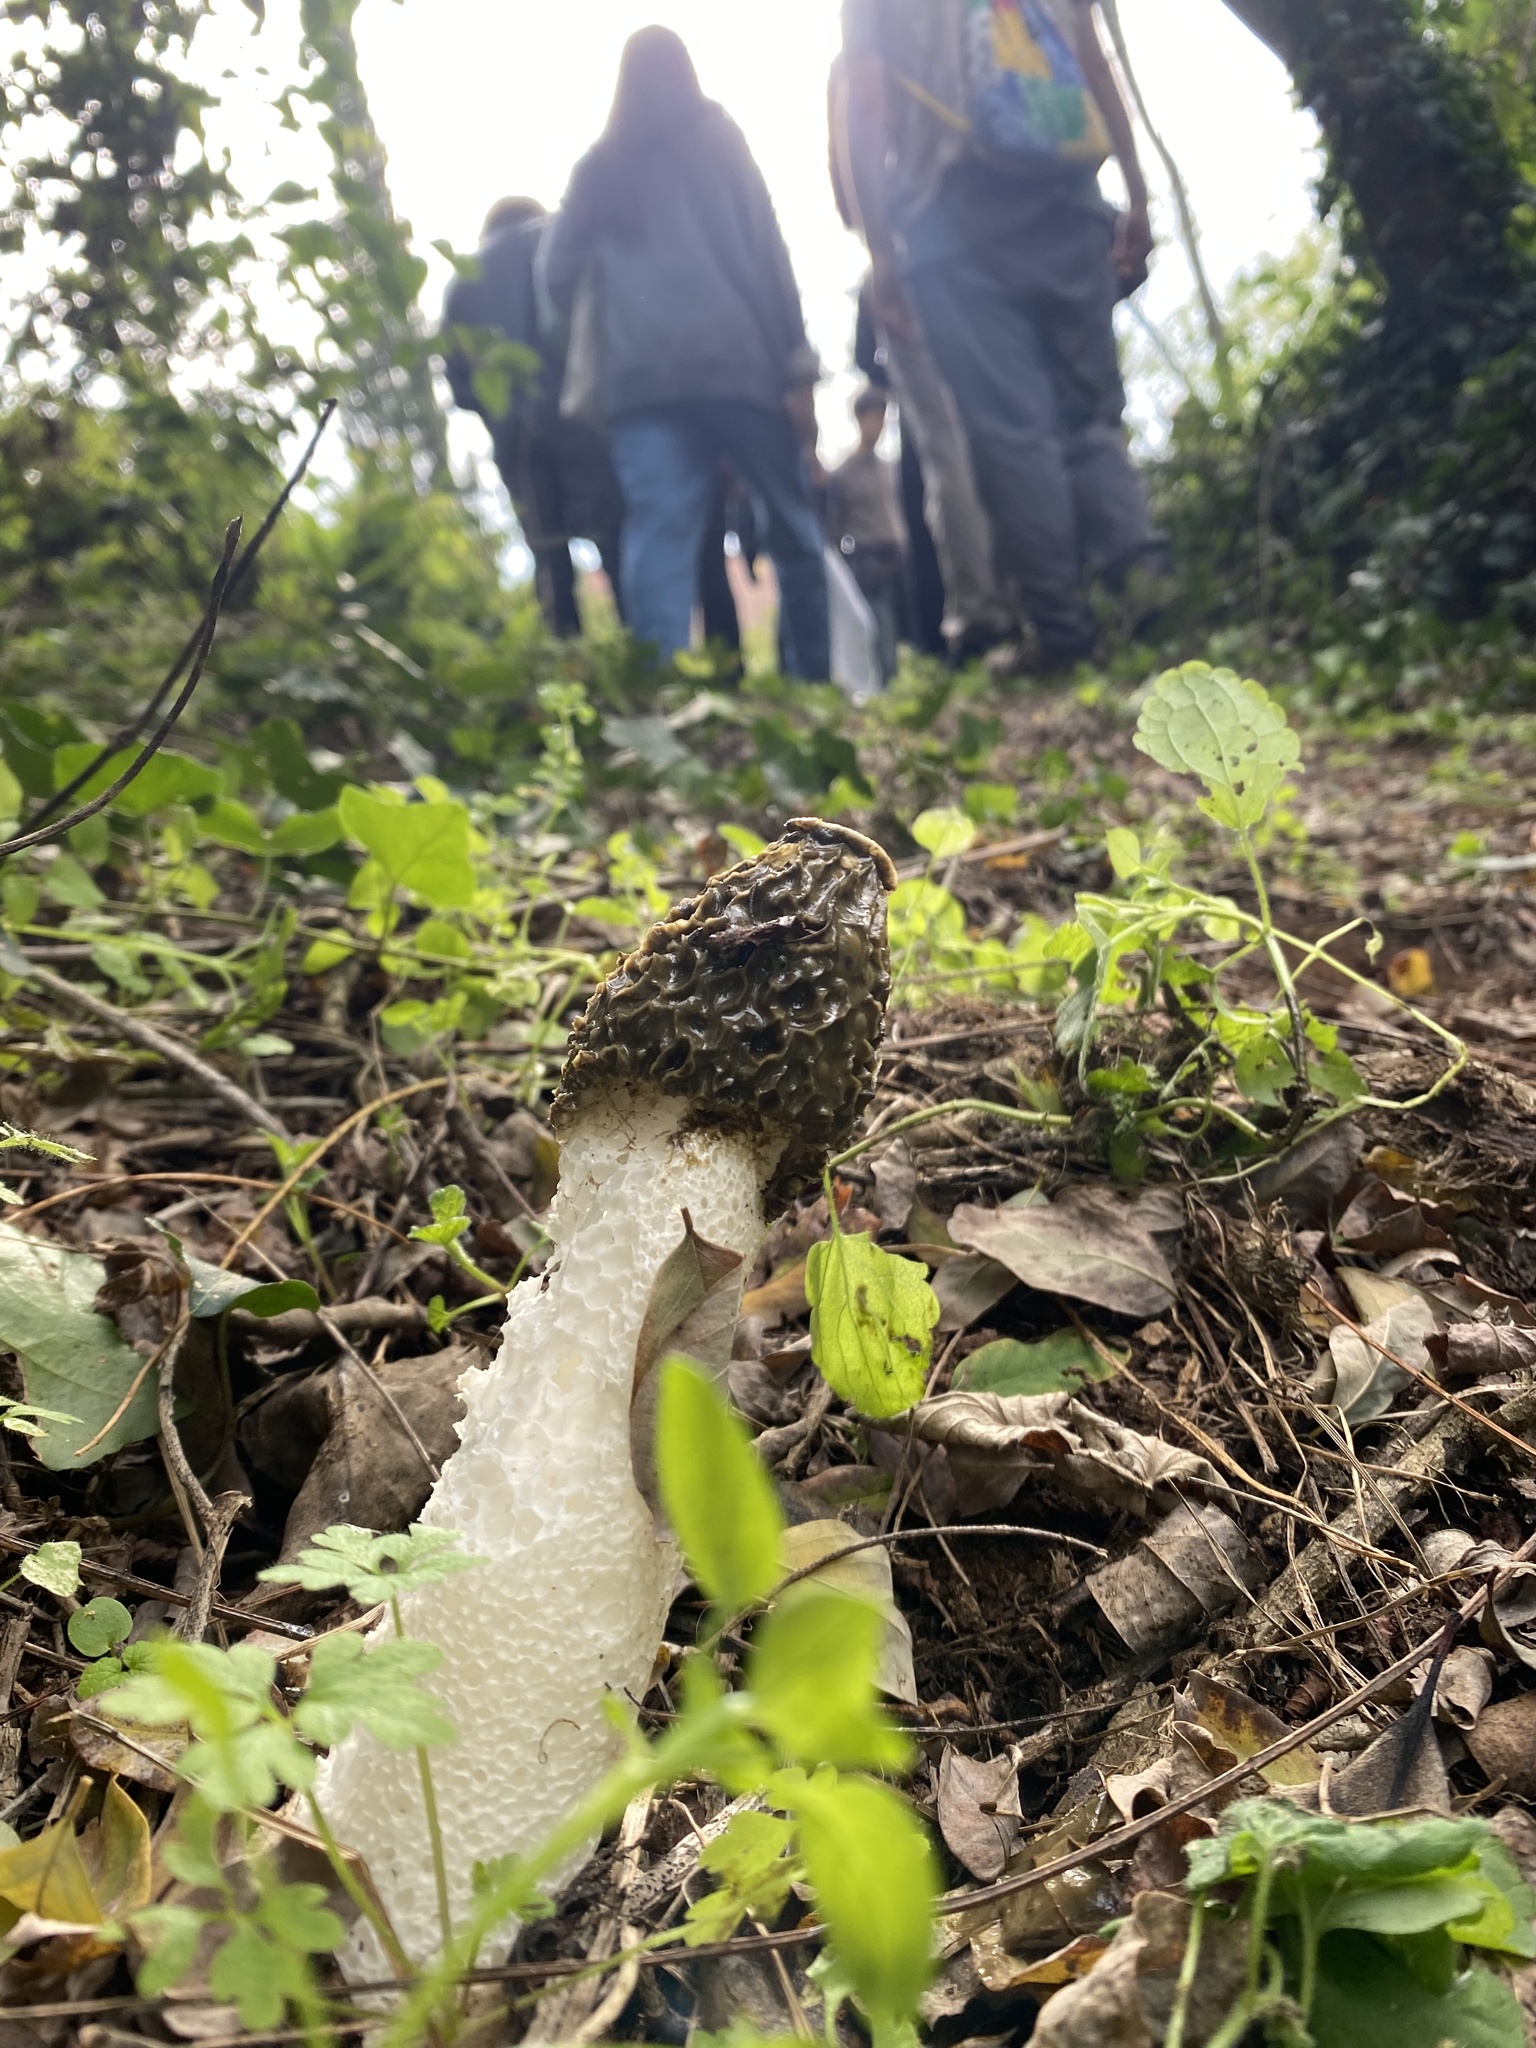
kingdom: Fungi
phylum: Basidiomycota
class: Agaricomycetes
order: Phallales
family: Phallaceae
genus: Phallus
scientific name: Phallus impudicus
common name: Common stinkhorn
